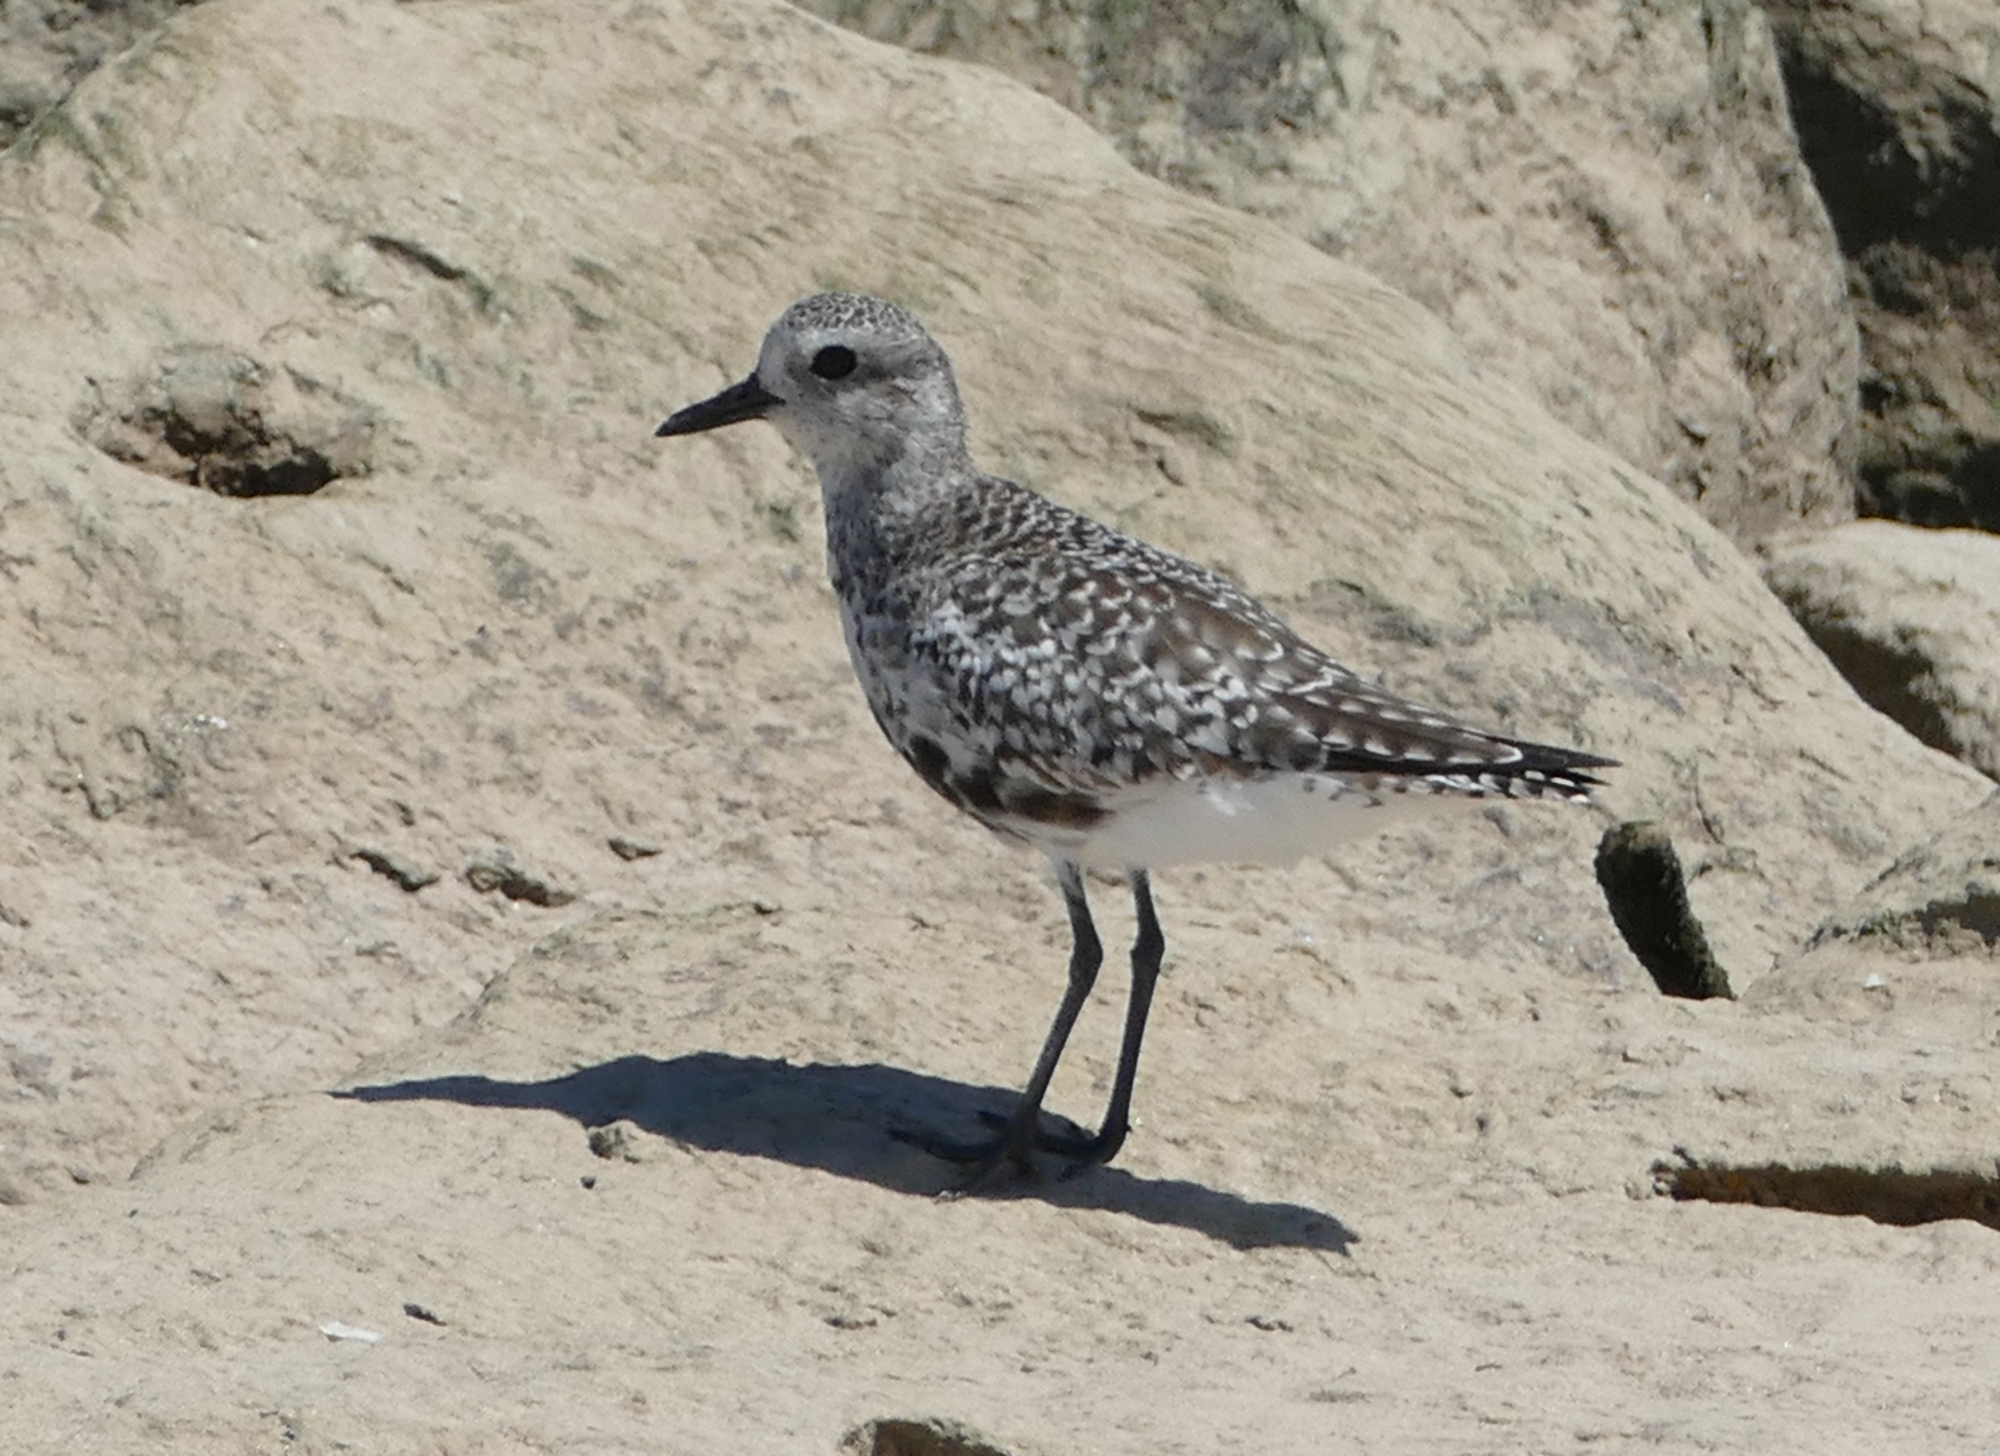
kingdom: Animalia
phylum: Chordata
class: Aves
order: Charadriiformes
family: Charadriidae
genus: Pluvialis
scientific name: Pluvialis squatarola
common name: Grey plover
